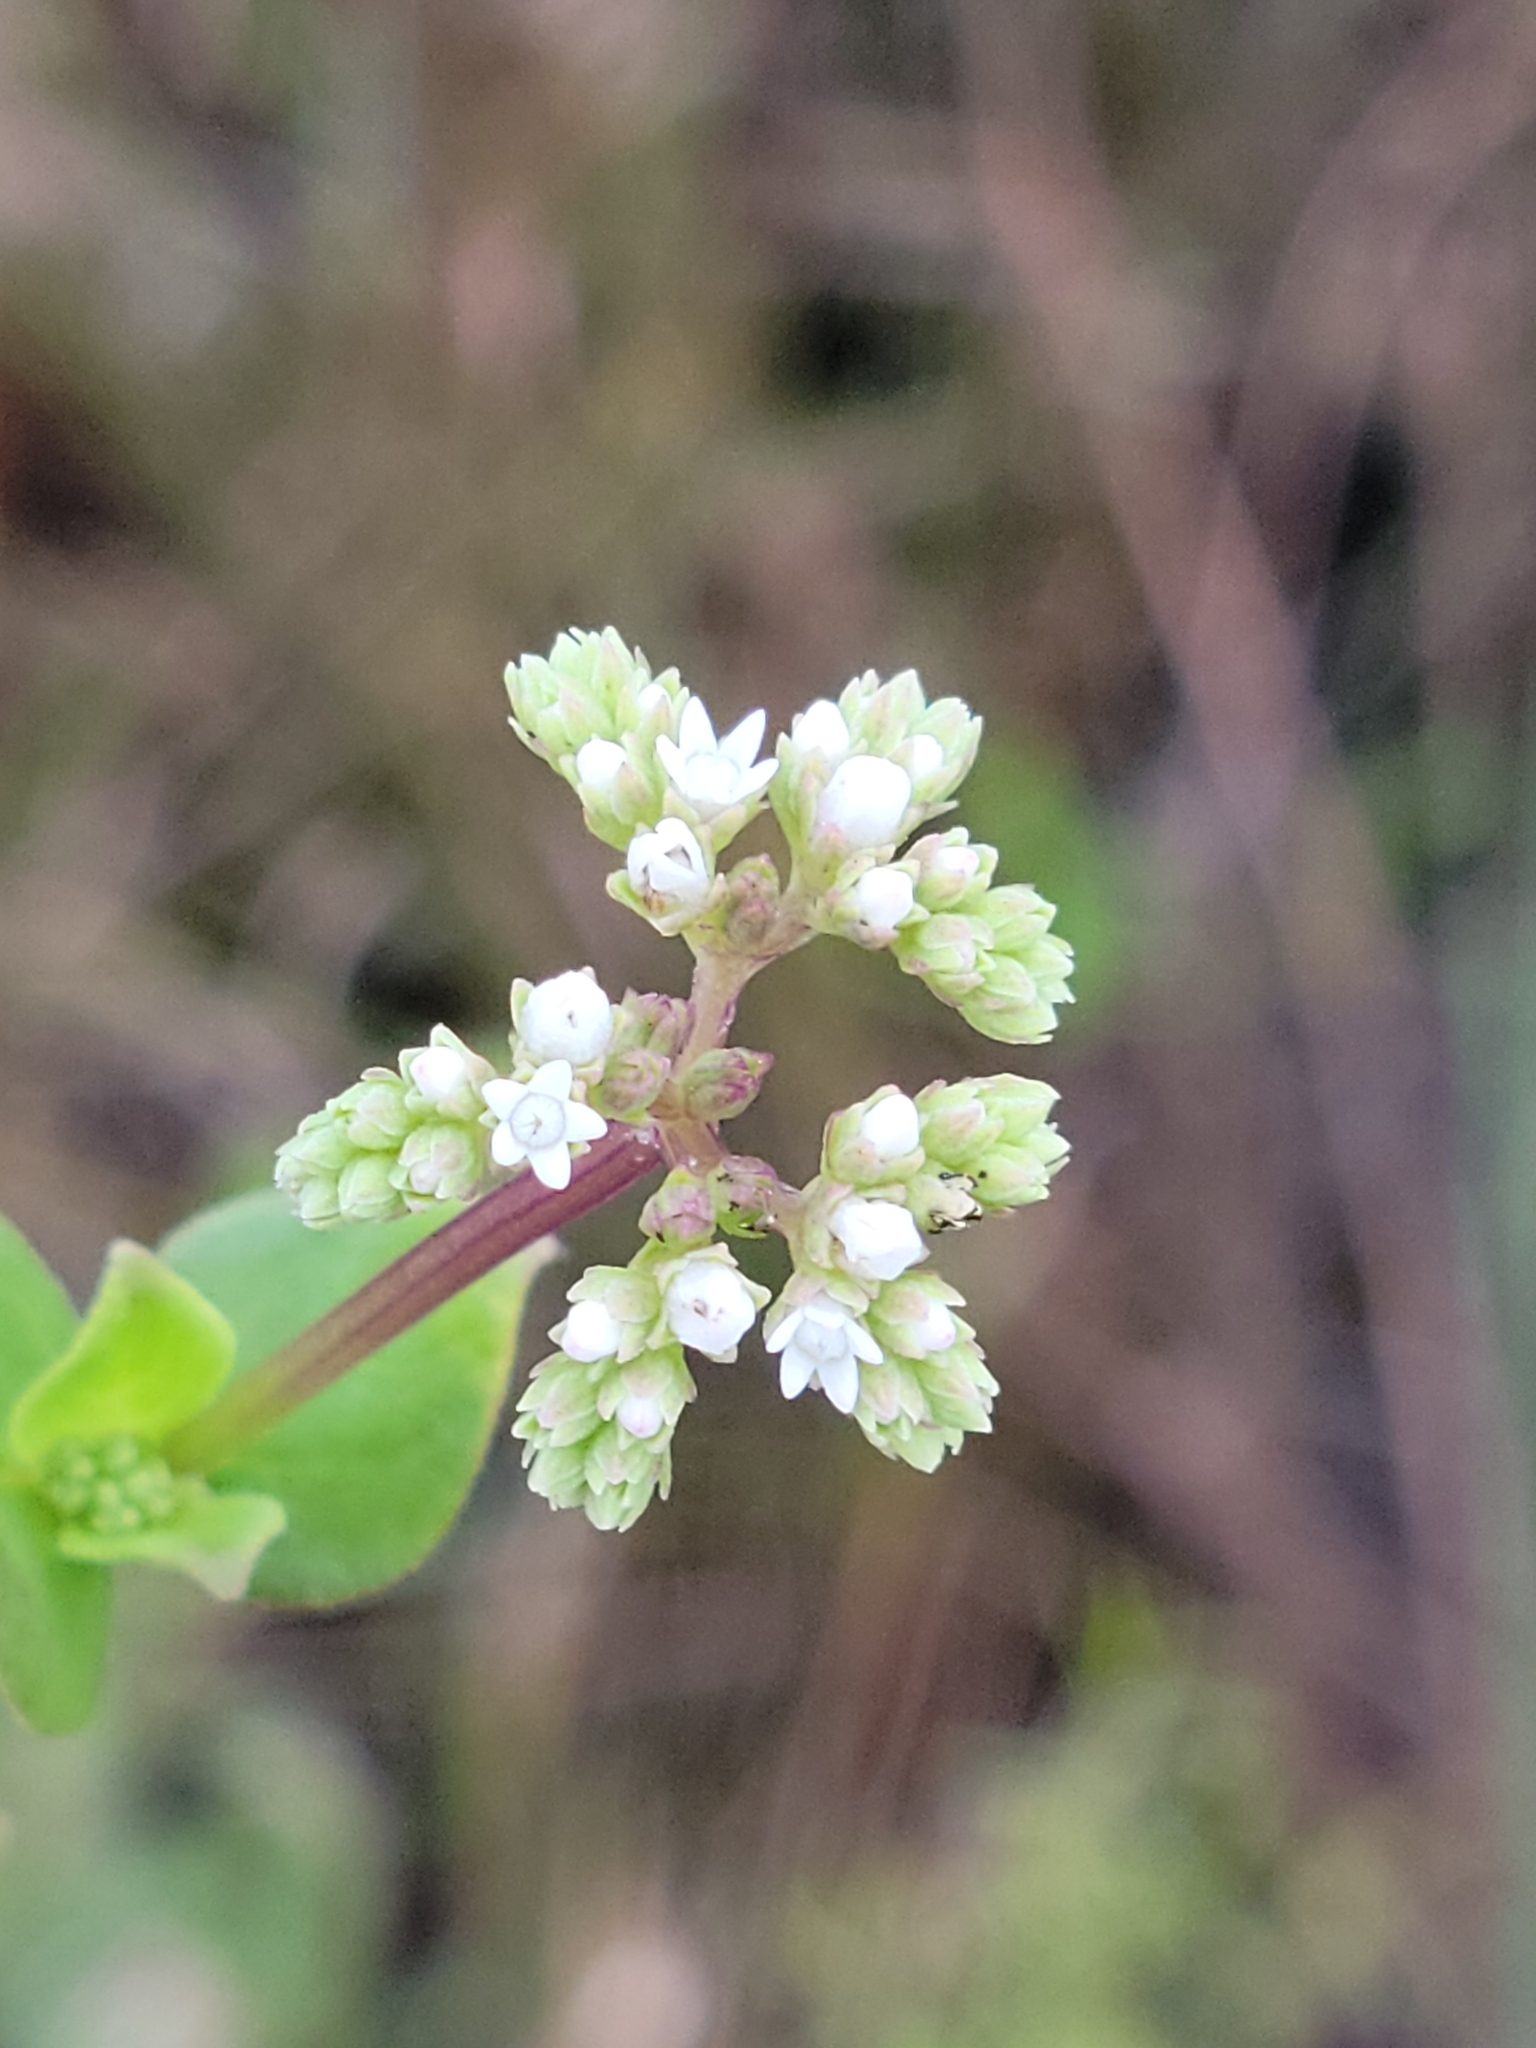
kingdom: Plantae
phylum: Tracheophyta
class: Magnoliopsida
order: Gentianales
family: Loganiaceae
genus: Mitreola
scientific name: Mitreola sessilifolia
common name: Swamp hornpod
